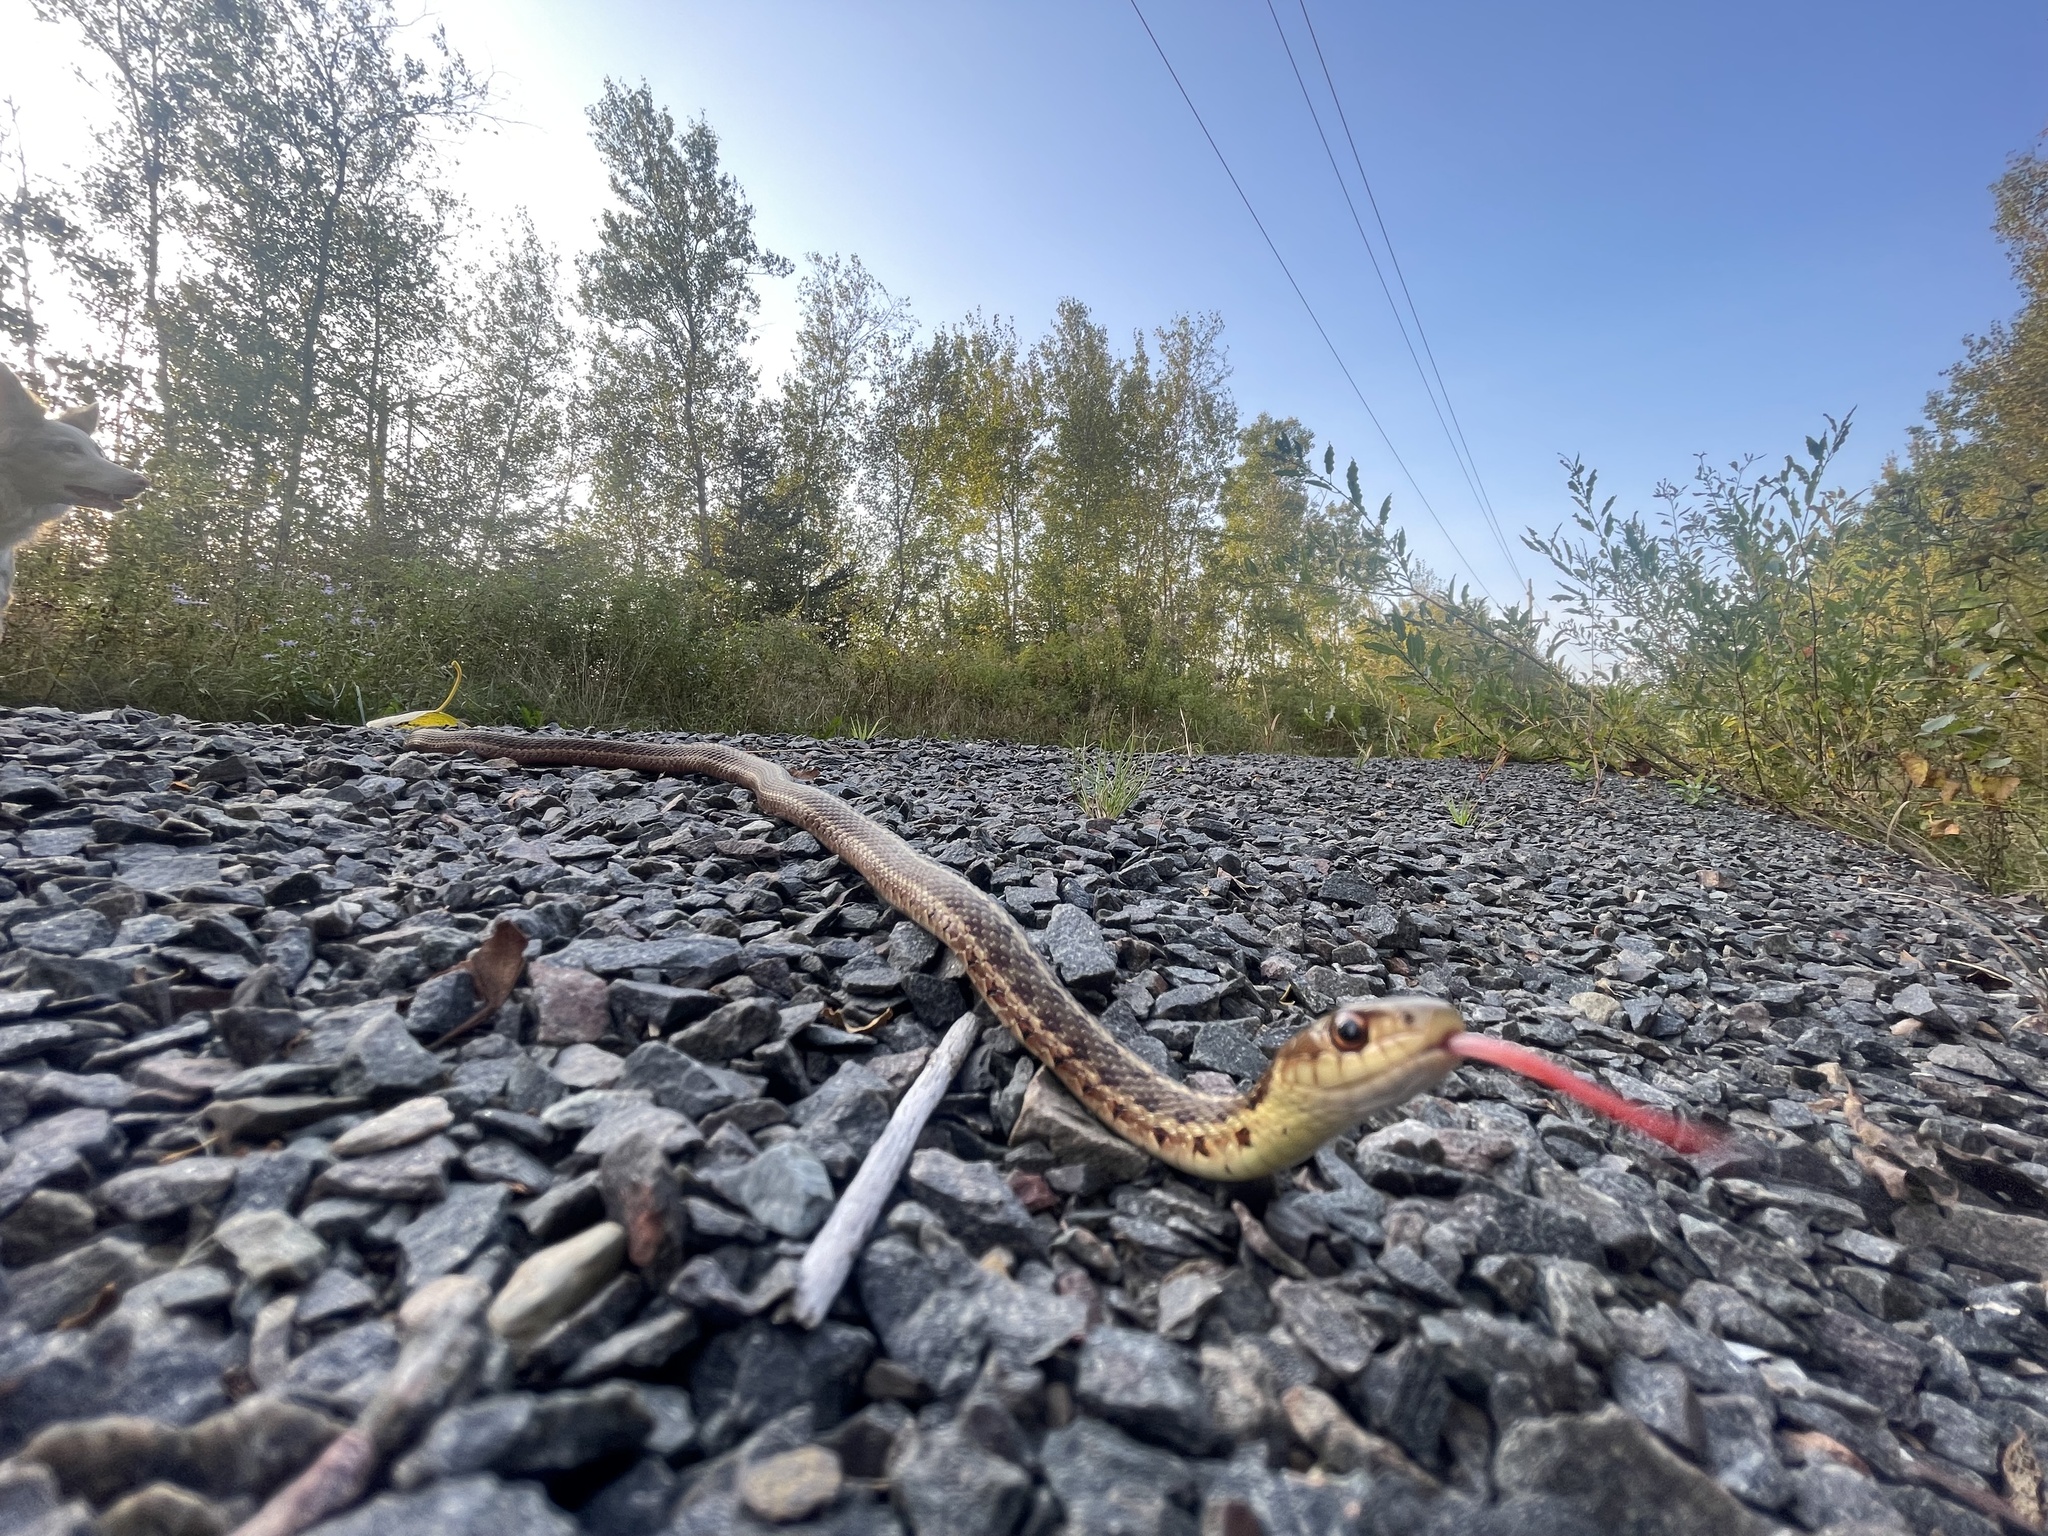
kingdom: Animalia
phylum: Chordata
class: Squamata
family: Colubridae
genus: Thamnophis
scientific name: Thamnophis sirtalis
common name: Common garter snake
